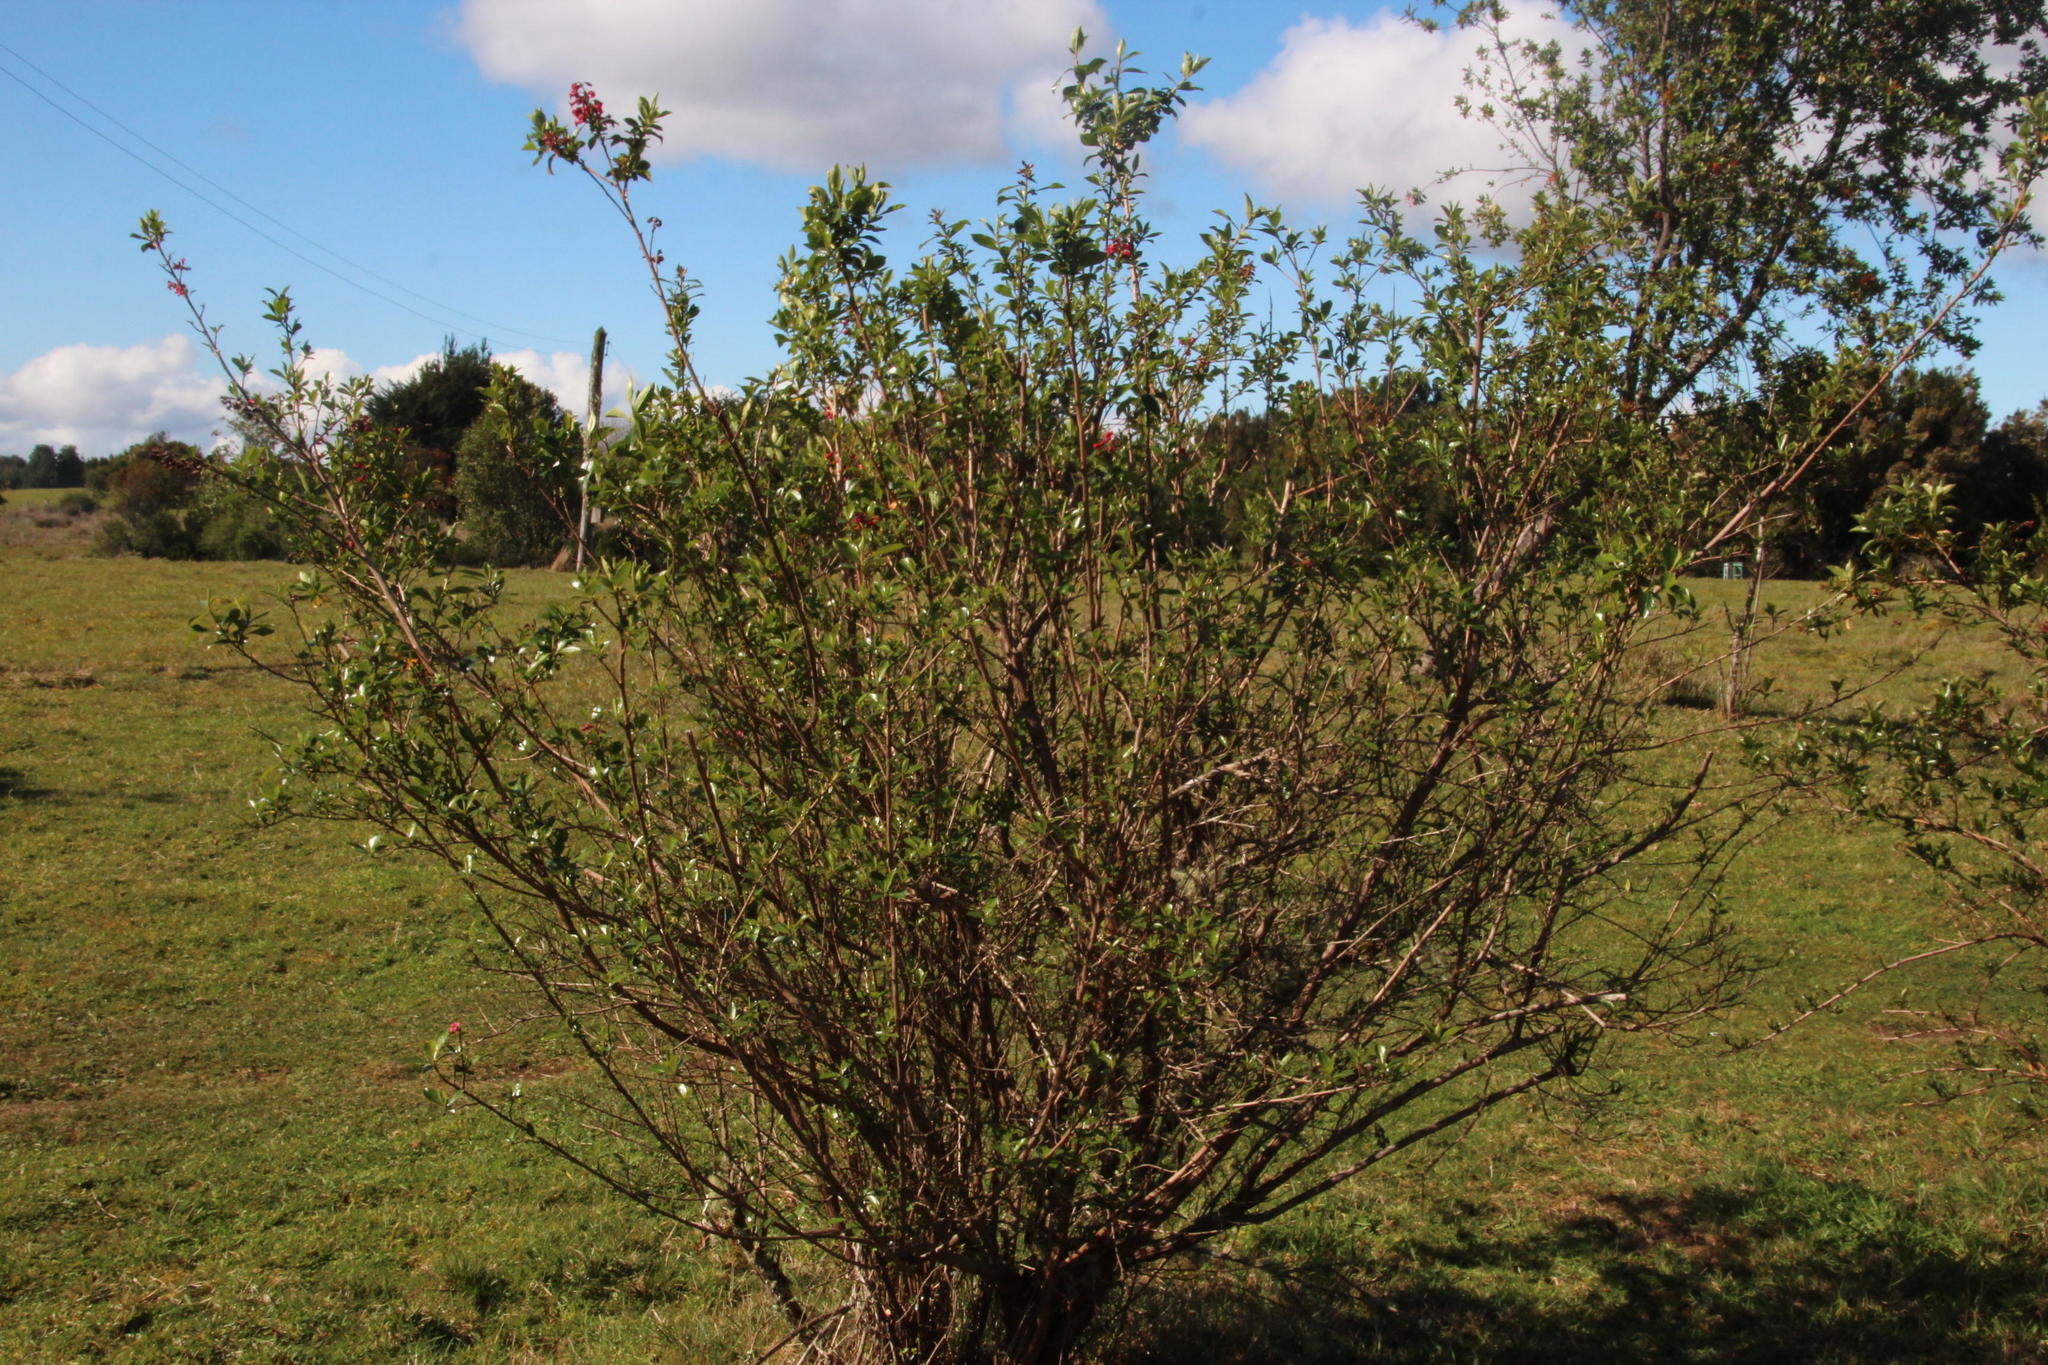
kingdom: Plantae
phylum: Tracheophyta
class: Magnoliopsida
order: Escalloniales
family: Escalloniaceae
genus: Escallonia
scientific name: Escallonia rubra
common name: Redclaws
